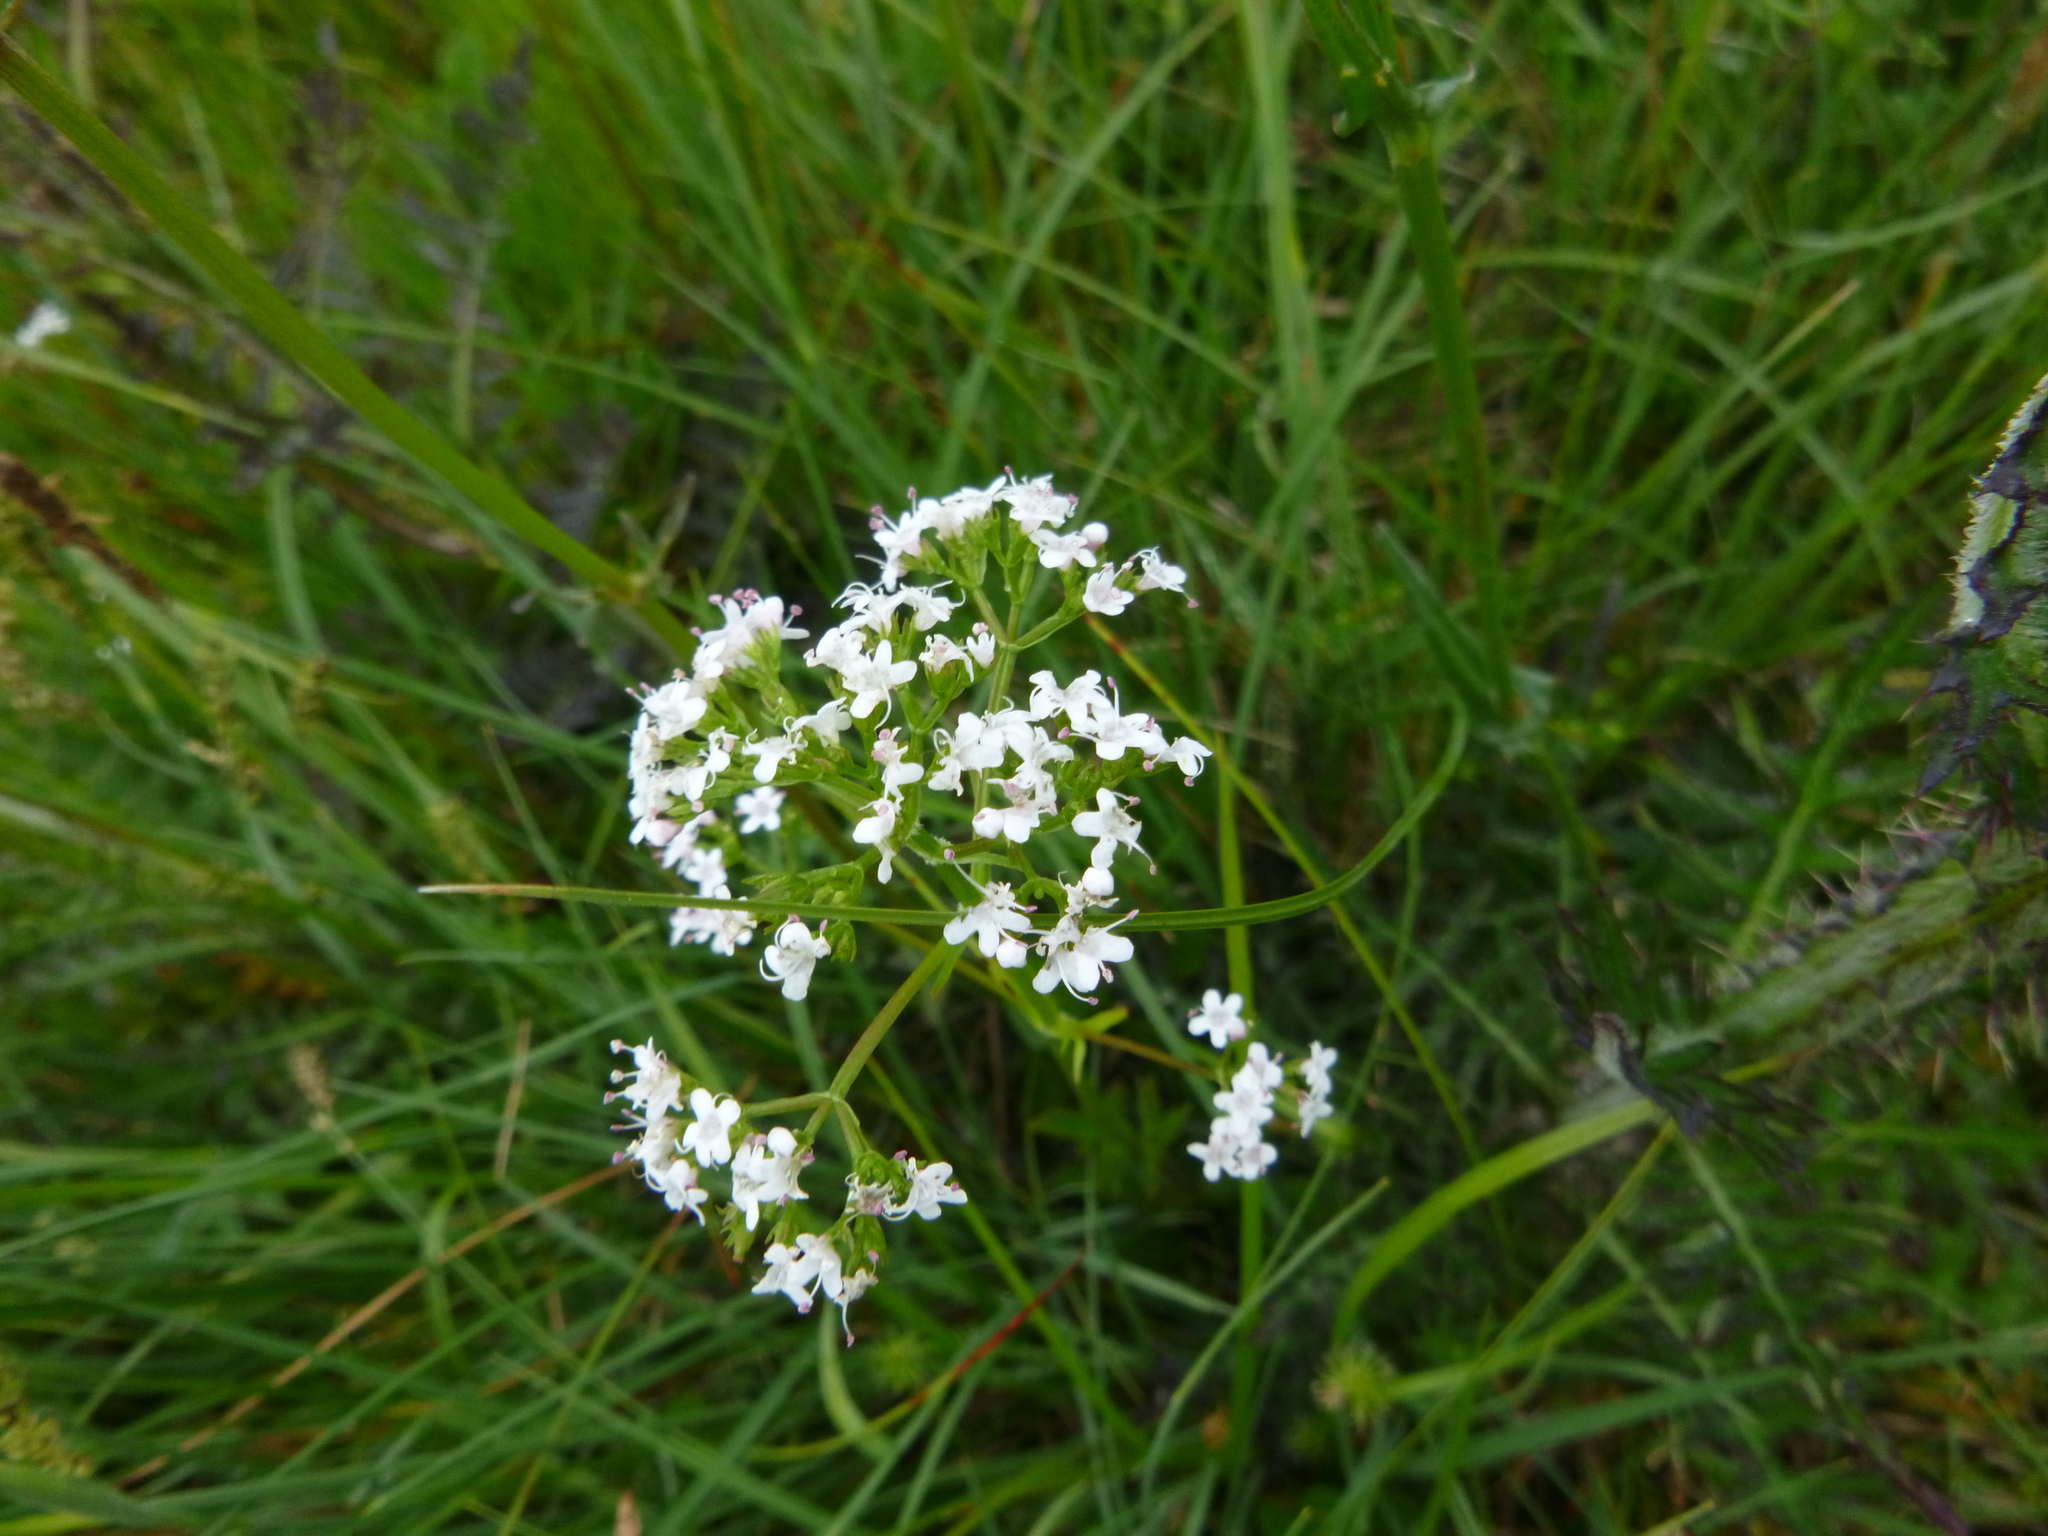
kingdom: Plantae
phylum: Tracheophyta
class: Magnoliopsida
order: Dipsacales
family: Caprifoliaceae
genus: Valeriana
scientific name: Valeriana dioica
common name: Marsh valerian
